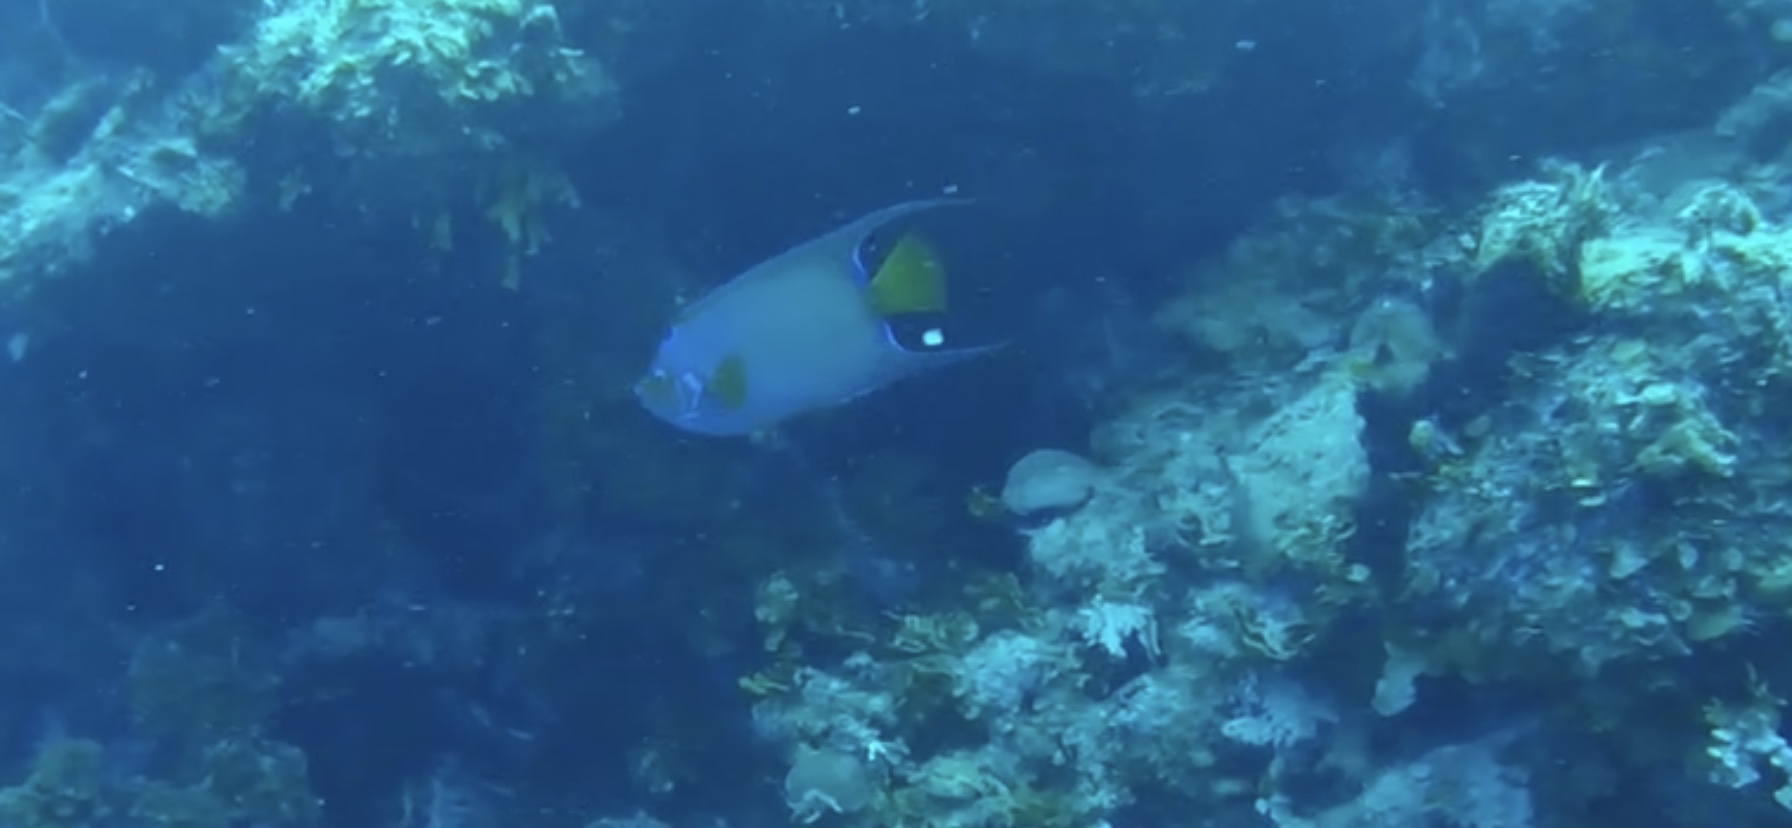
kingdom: Animalia
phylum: Chordata
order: Perciformes
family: Pomacanthidae
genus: Holacanthus
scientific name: Holacanthus ciliaris
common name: Queen angelfish
